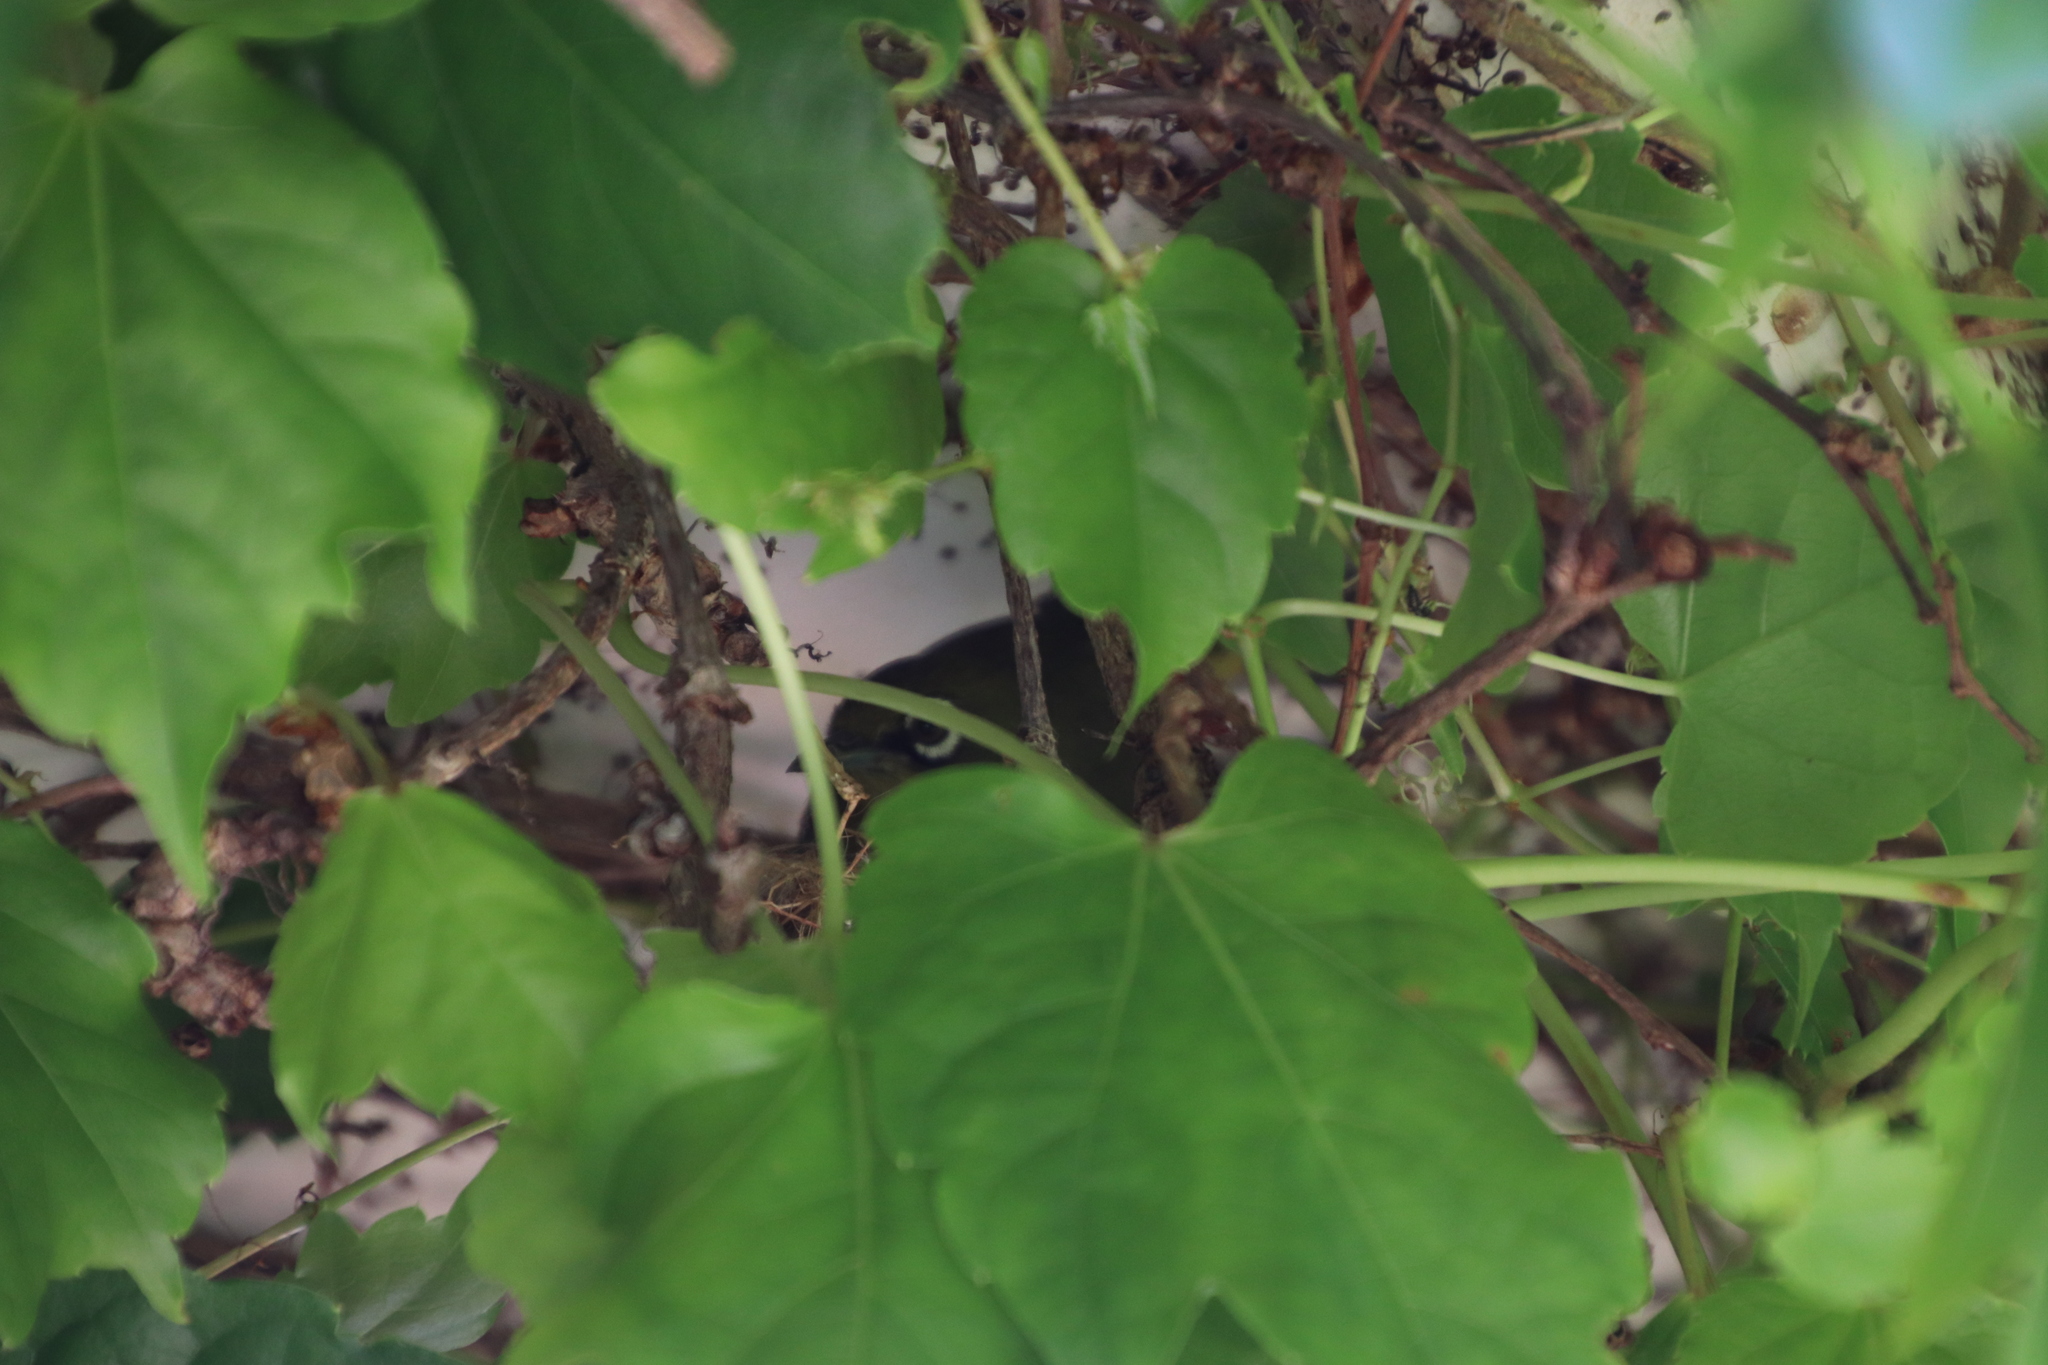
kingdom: Animalia
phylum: Chordata
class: Aves
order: Passeriformes
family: Zosteropidae
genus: Zosterops
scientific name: Zosterops virens
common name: Cape white-eye
